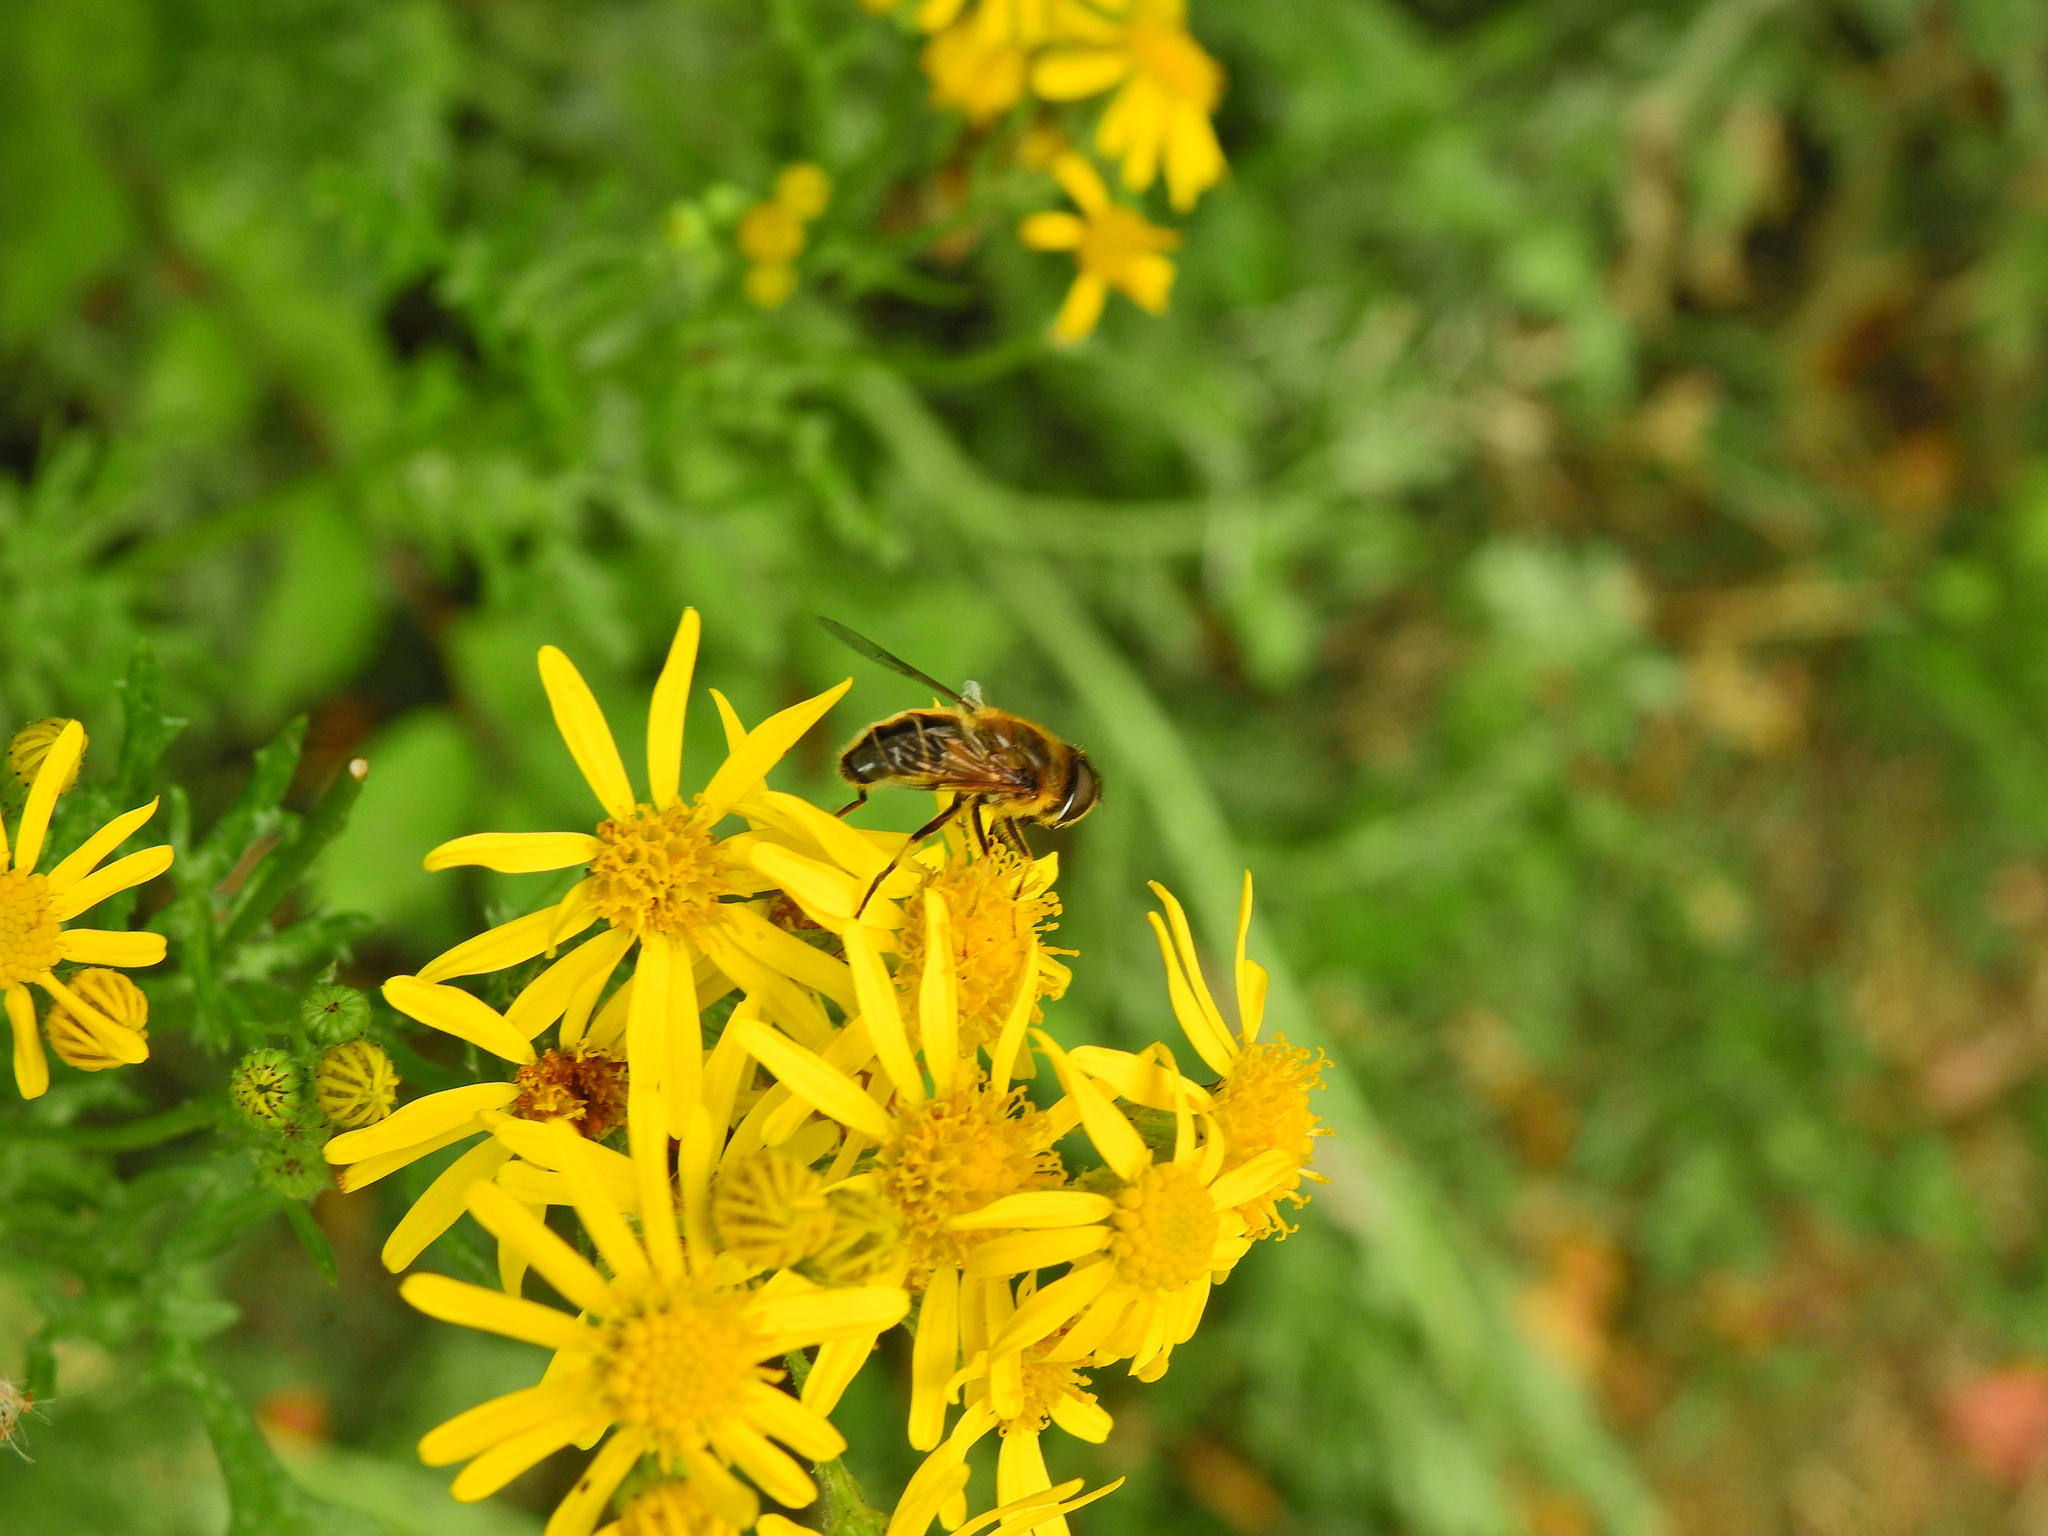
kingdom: Animalia
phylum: Arthropoda
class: Insecta
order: Diptera
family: Syrphidae
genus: Eristalis
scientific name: Eristalis pertinax
